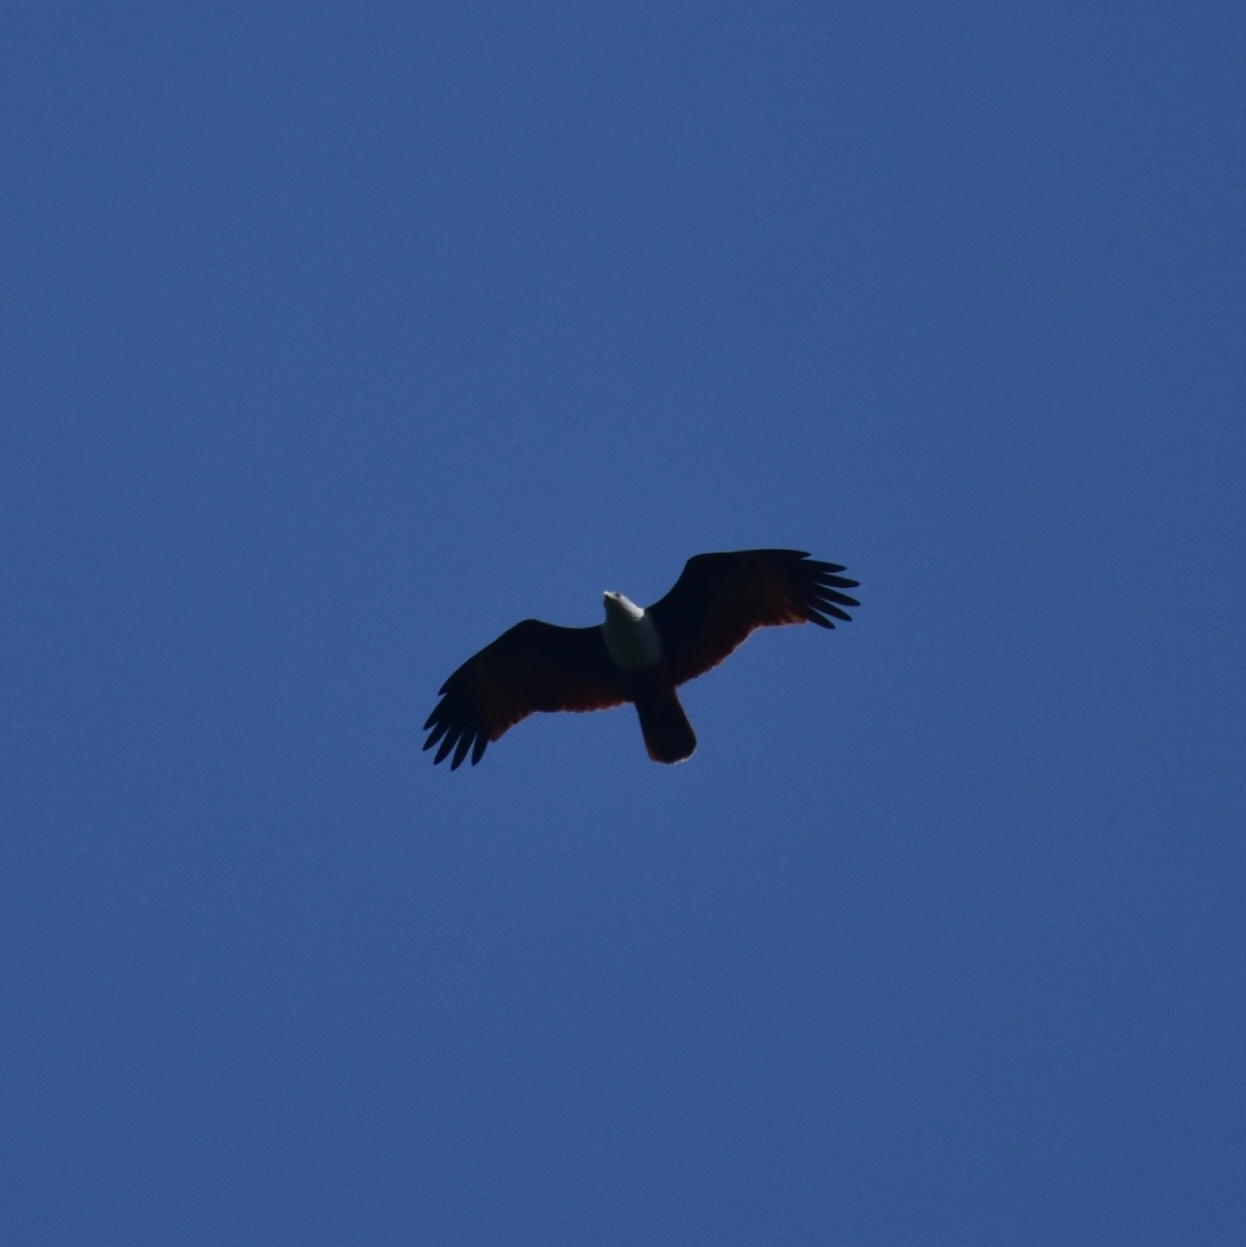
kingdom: Animalia
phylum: Chordata
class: Aves
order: Accipitriformes
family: Accipitridae
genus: Haliastur
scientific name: Haliastur indus
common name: Brahminy kite
